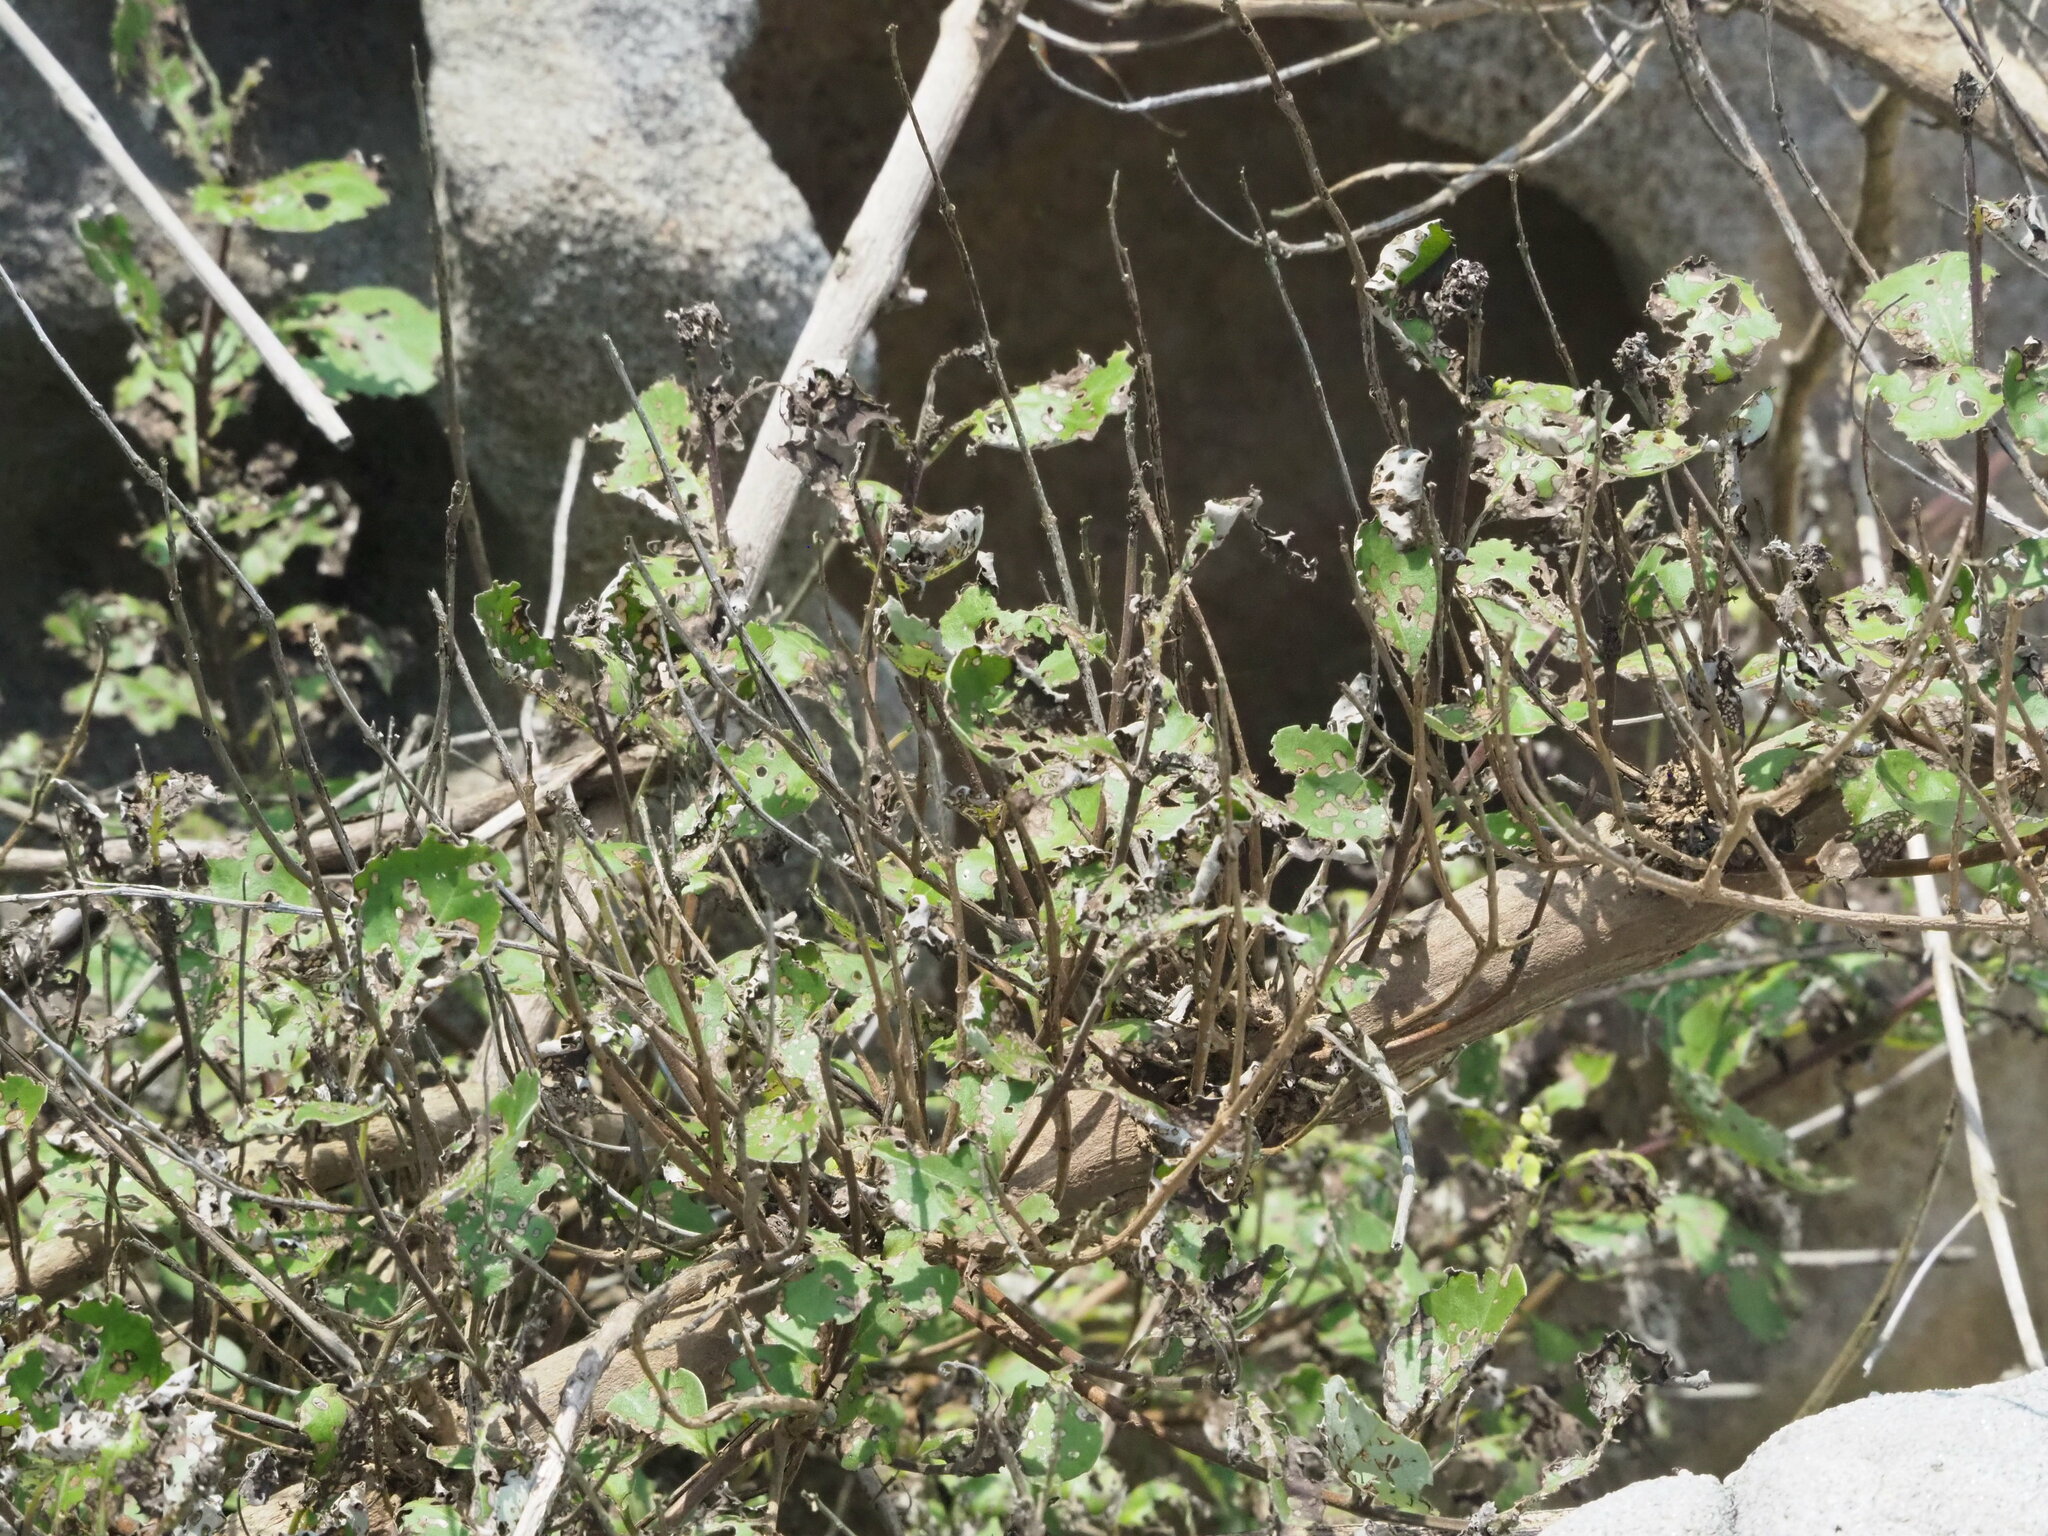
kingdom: Plantae
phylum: Tracheophyta
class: Magnoliopsida
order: Lamiales
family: Lamiaceae
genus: Vitex
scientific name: Vitex rotundifolia
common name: Beach vitex
